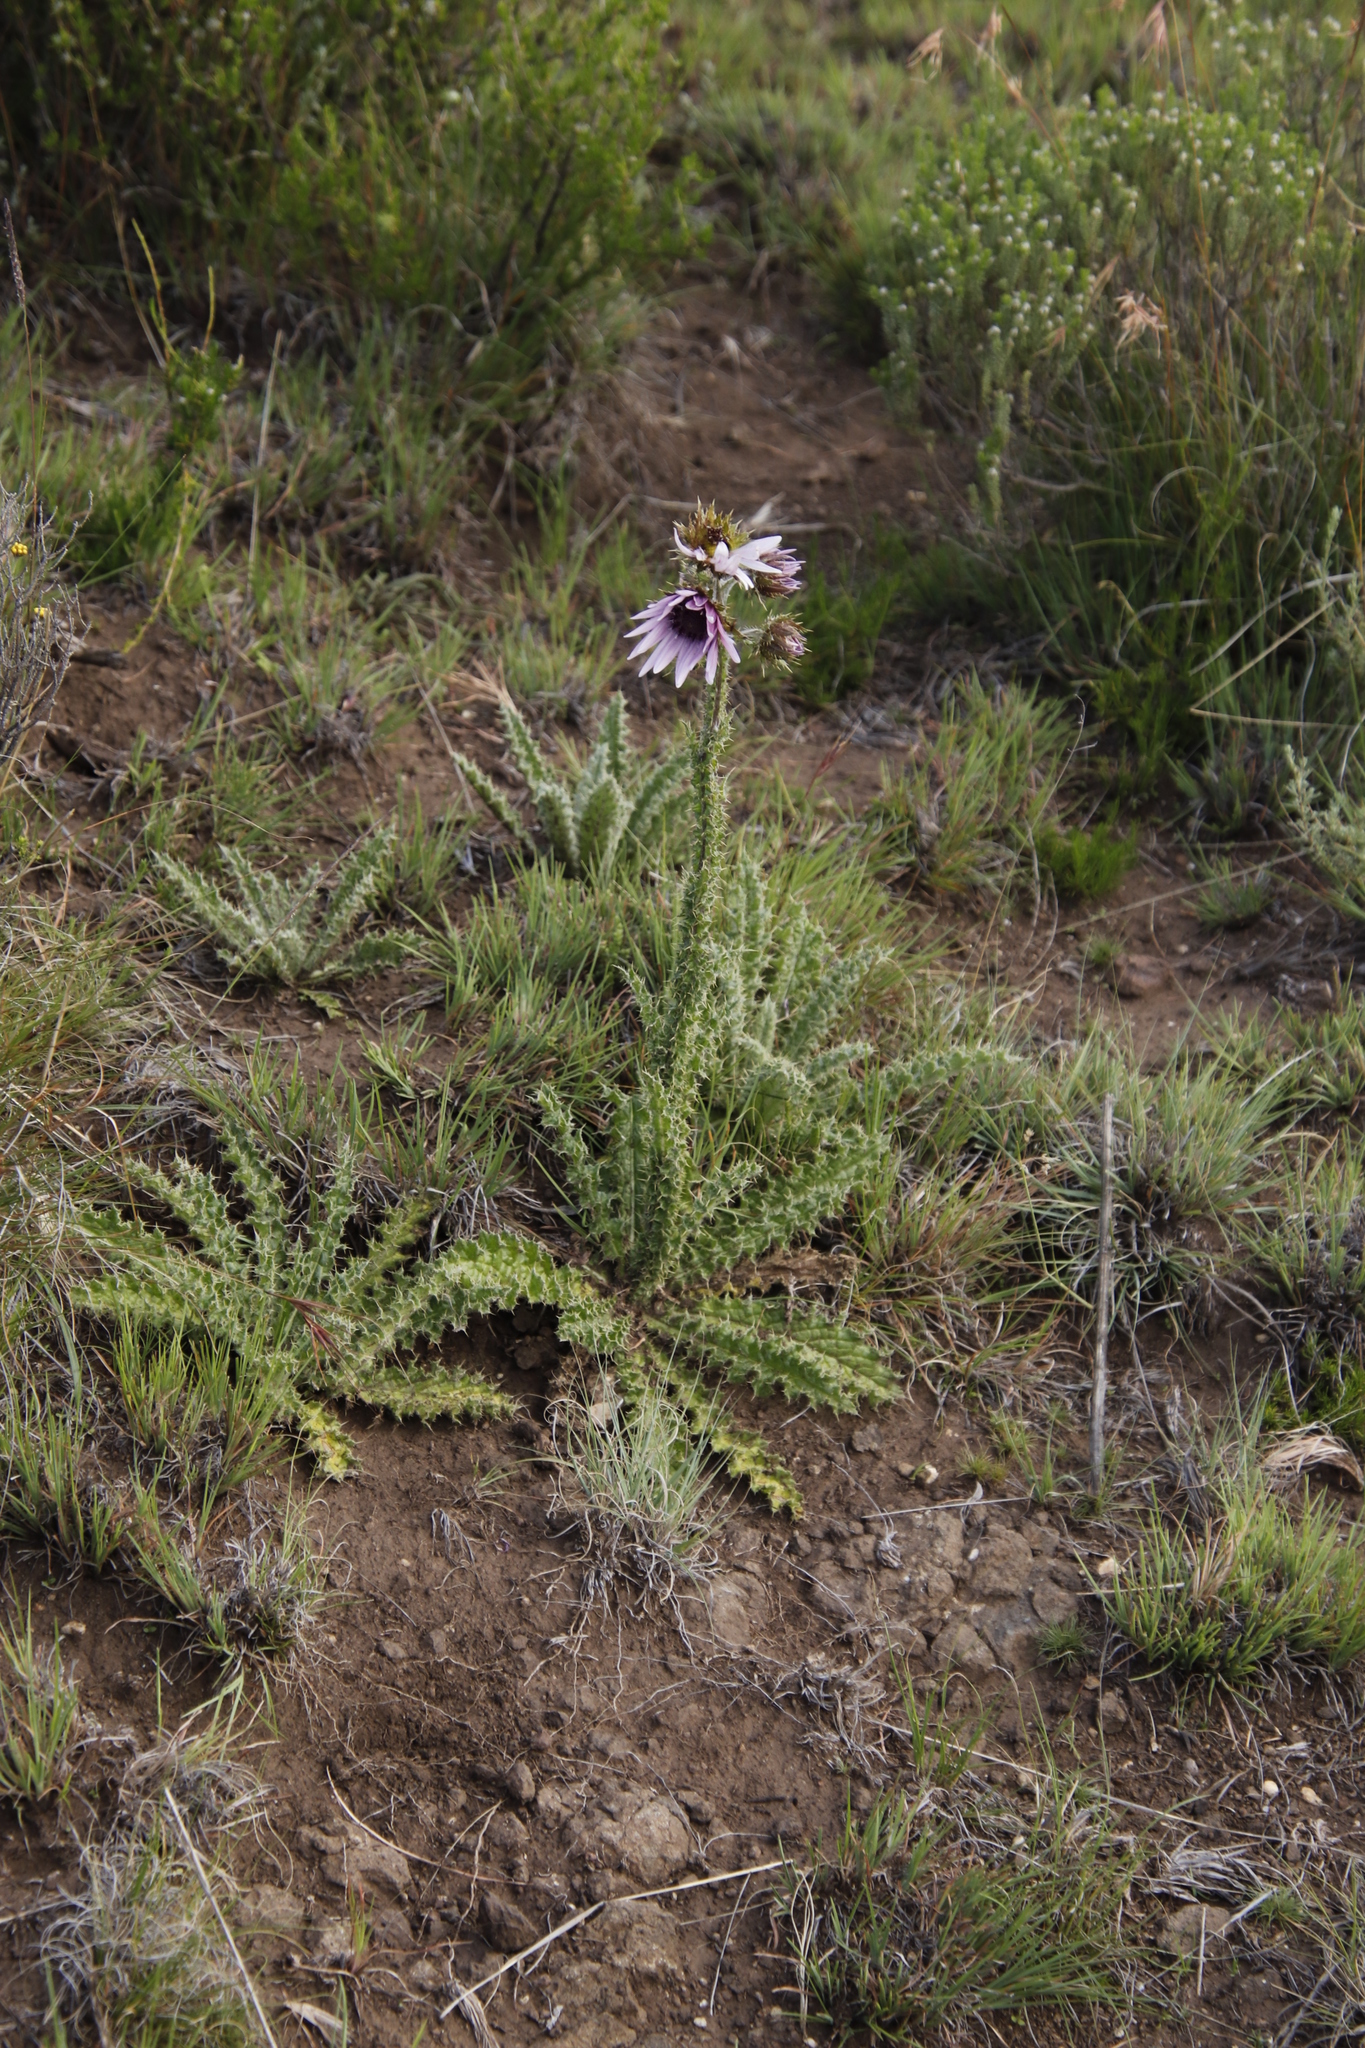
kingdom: Plantae
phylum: Tracheophyta
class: Magnoliopsida
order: Asterales
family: Asteraceae
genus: Berkheya
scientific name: Berkheya purpurea
